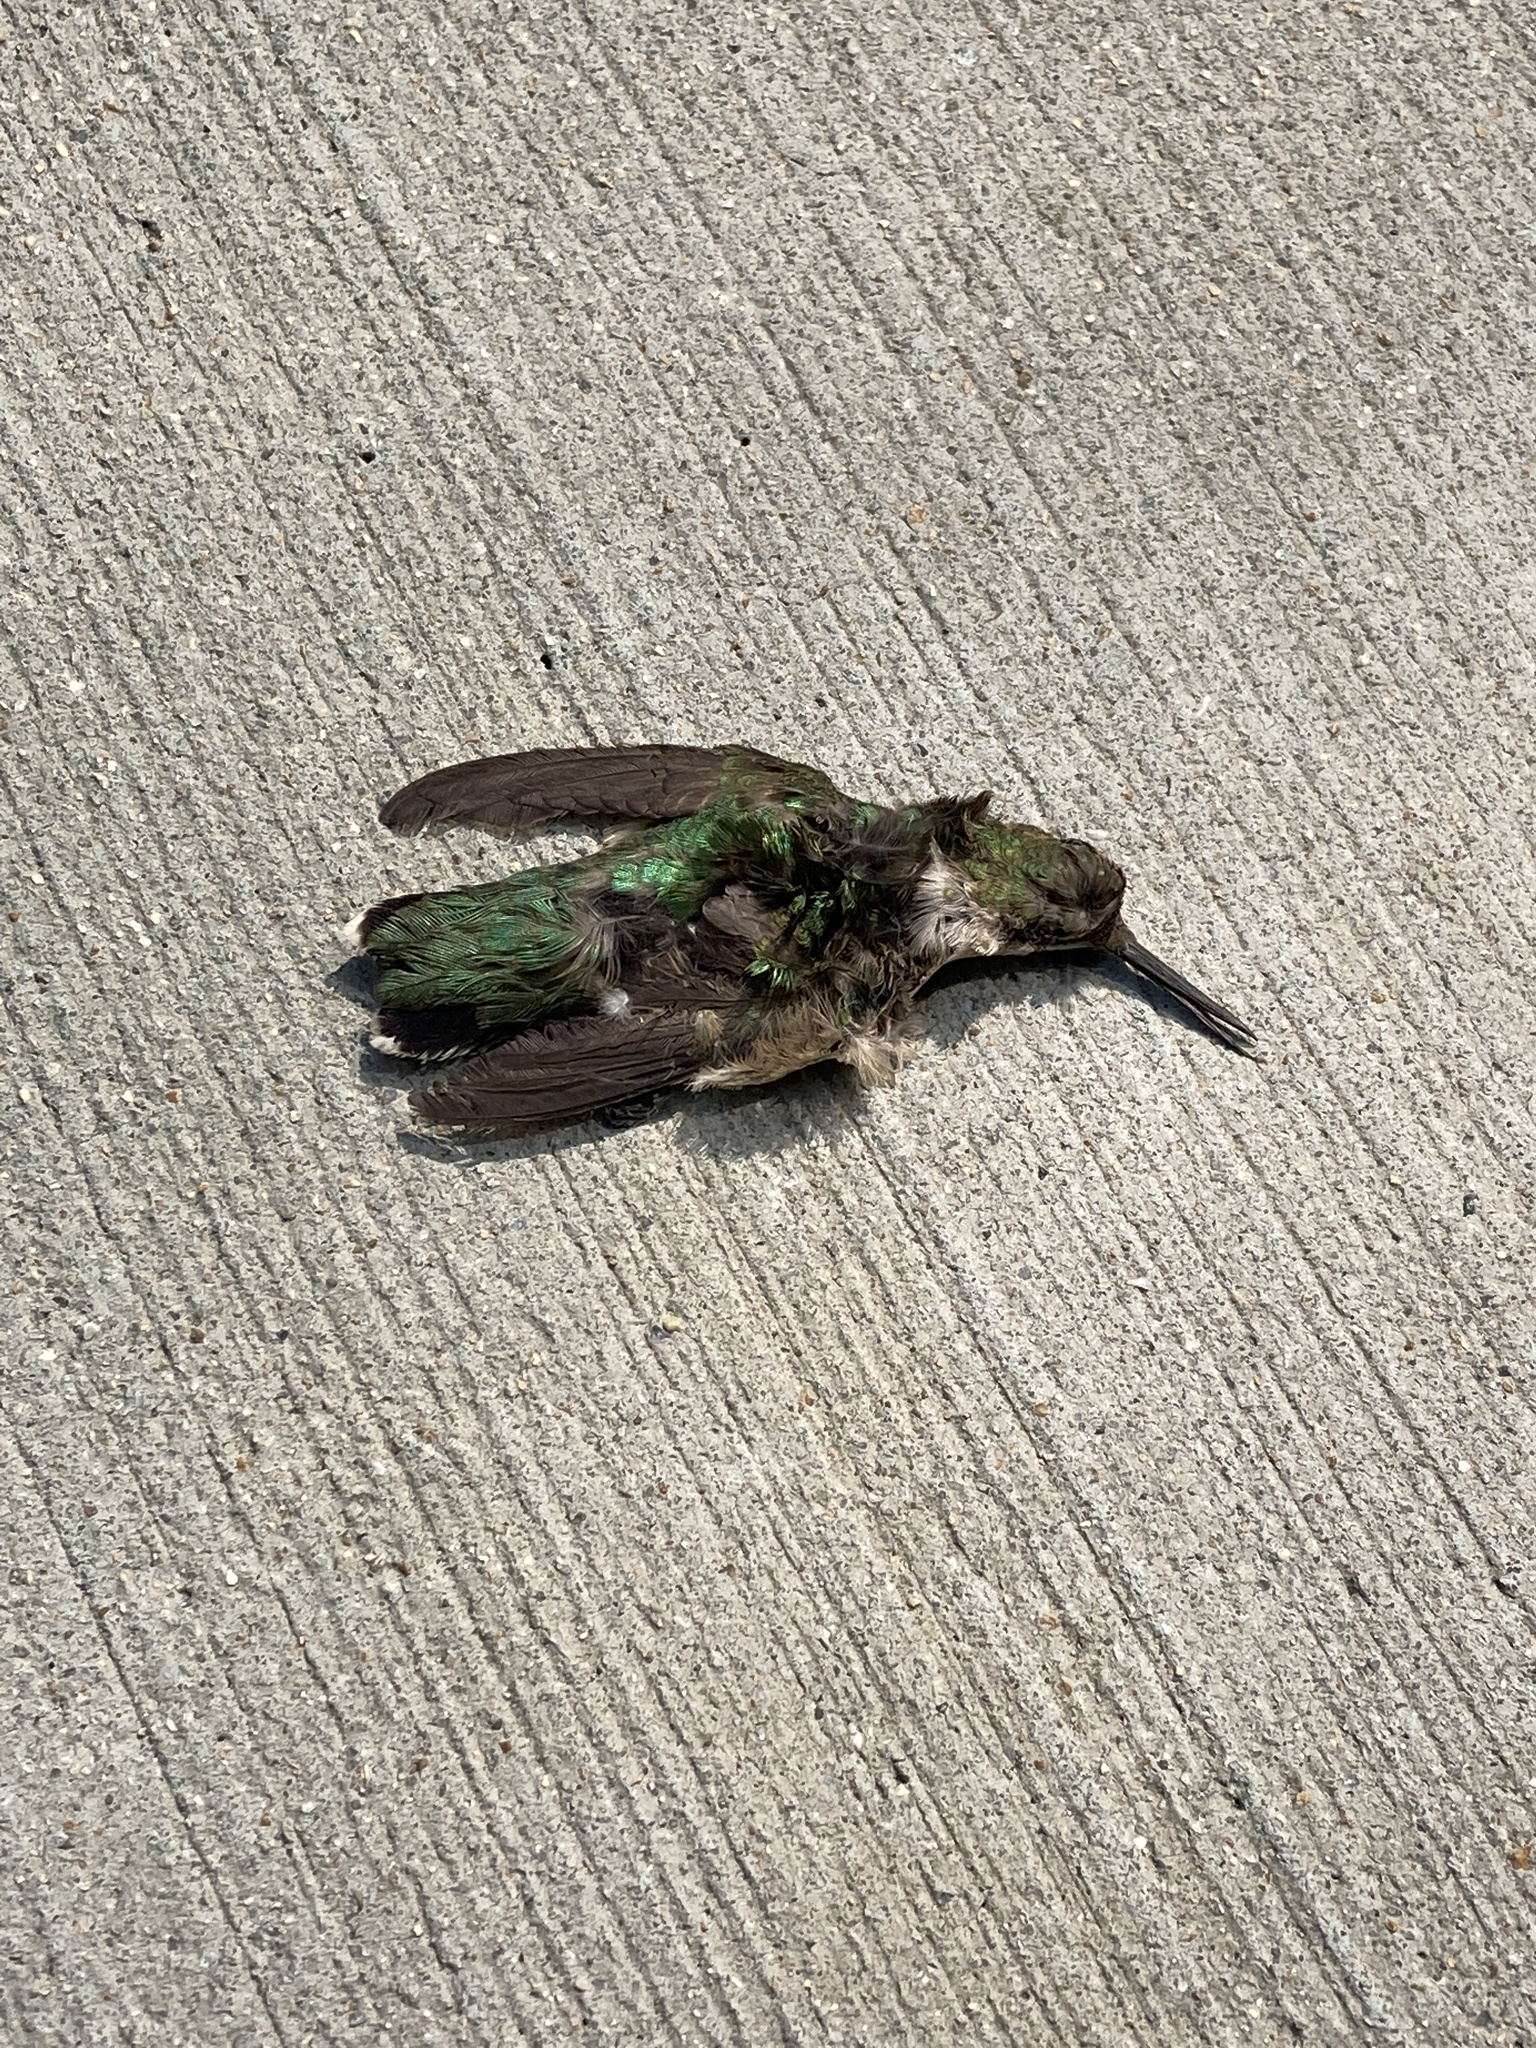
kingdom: Animalia
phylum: Chordata
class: Aves
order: Apodiformes
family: Trochilidae
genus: Archilochus
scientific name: Archilochus colubris
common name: Ruby-throated hummingbird
